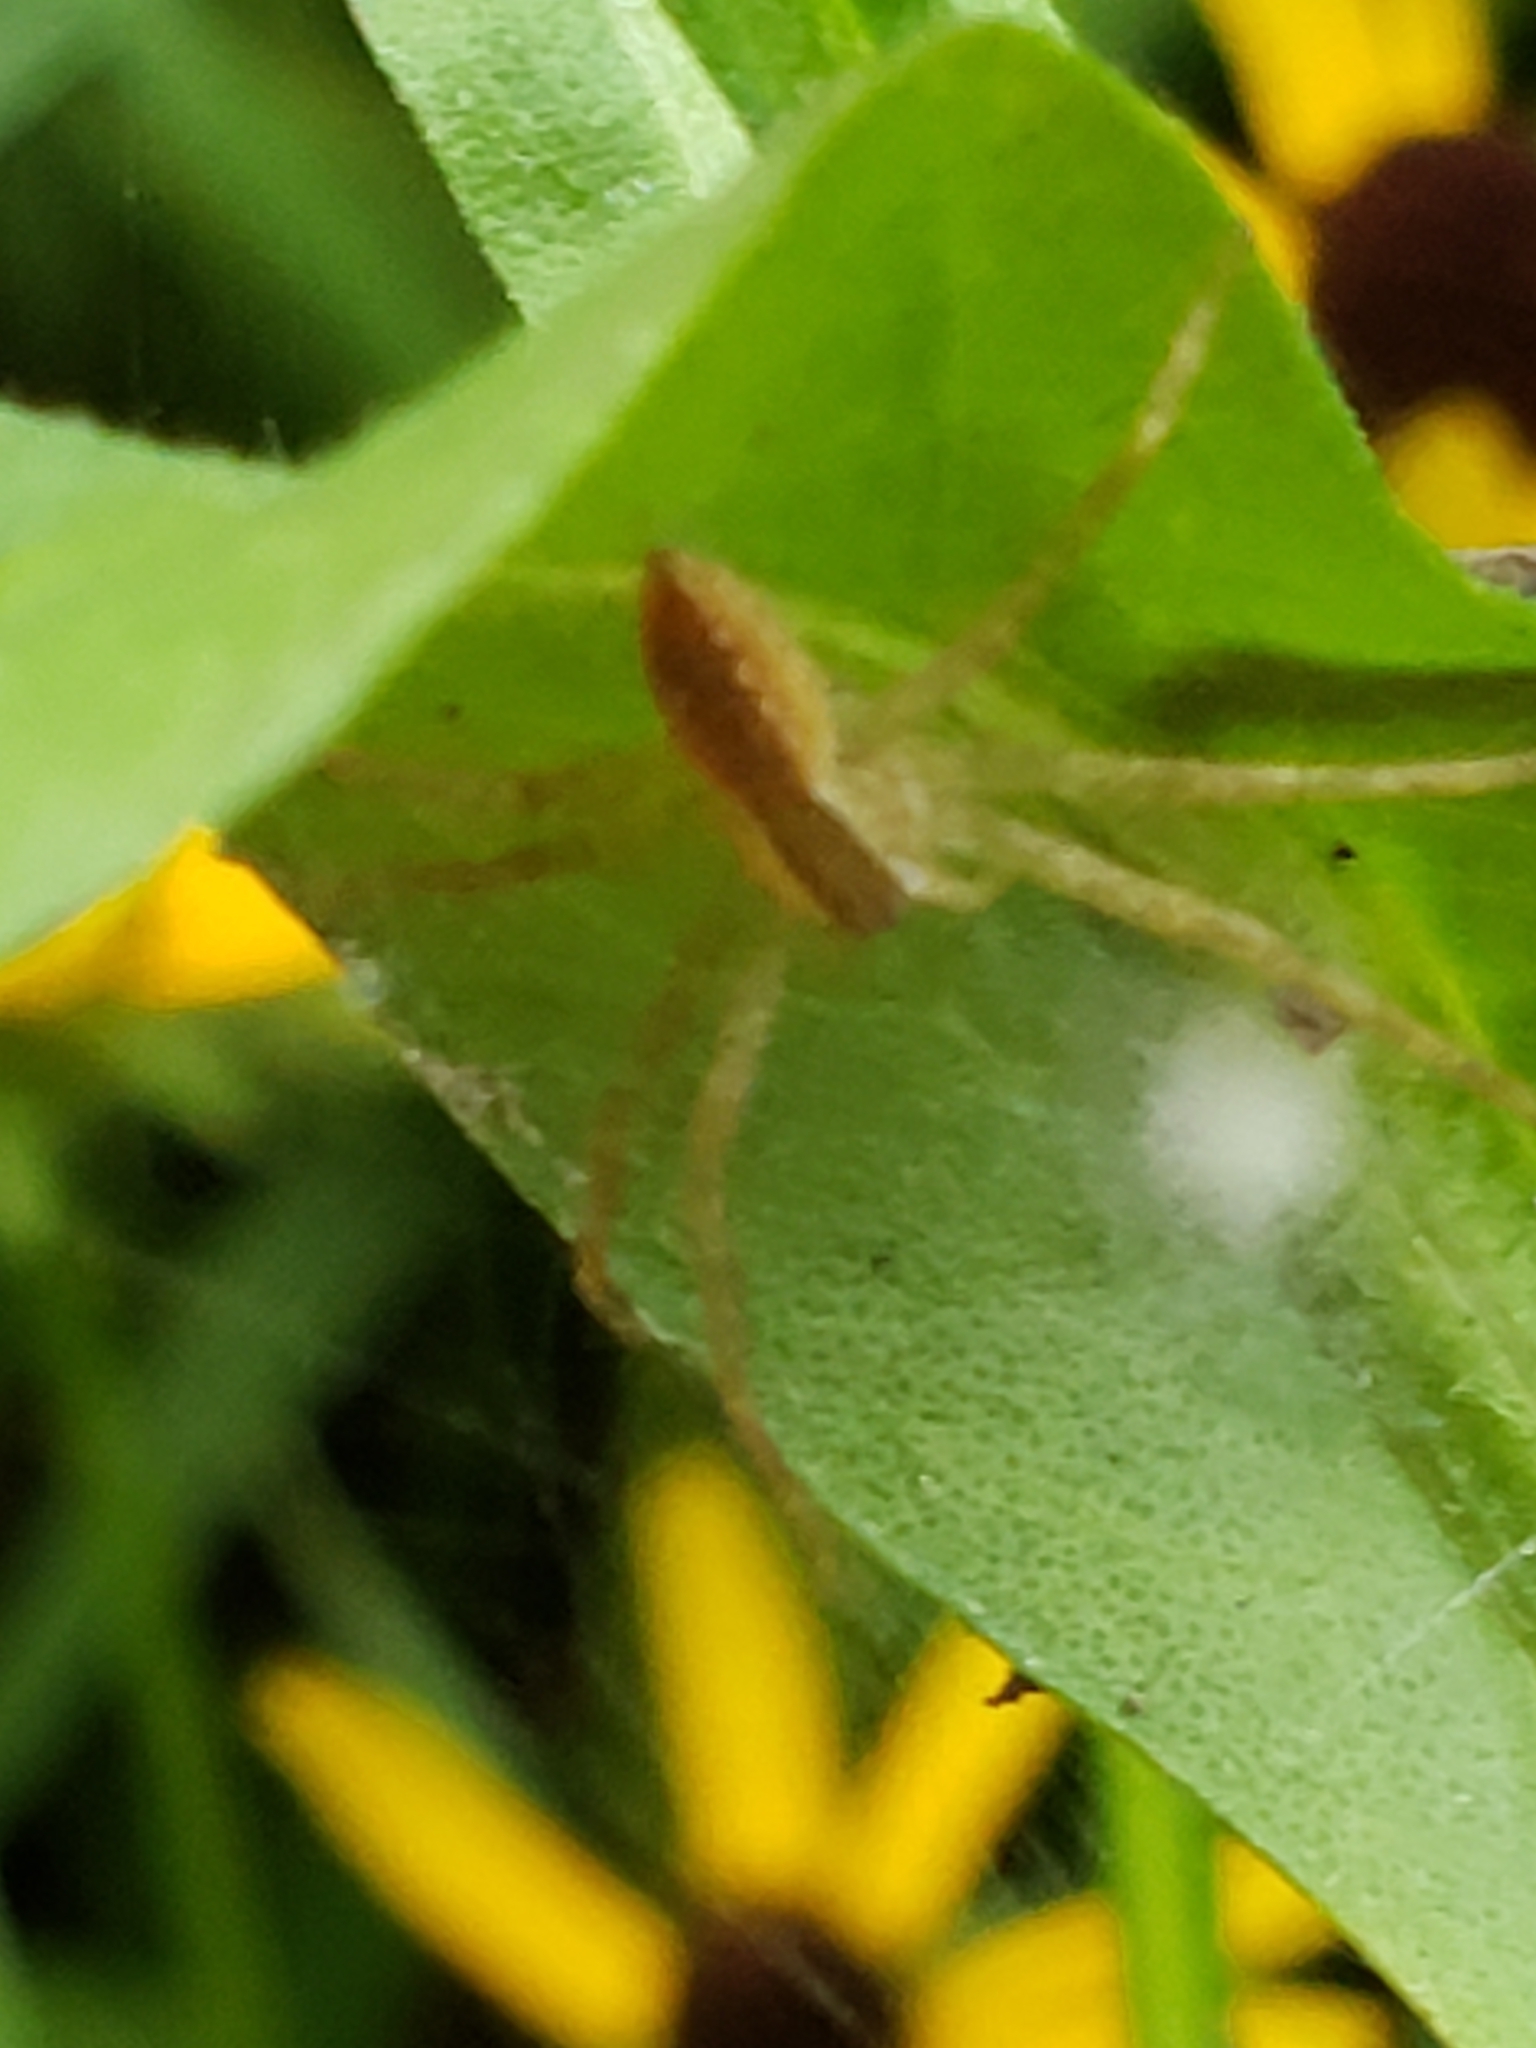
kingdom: Animalia
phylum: Arthropoda
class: Arachnida
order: Araneae
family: Pisauridae
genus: Pisaurina
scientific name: Pisaurina mira
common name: American nursery web spider
